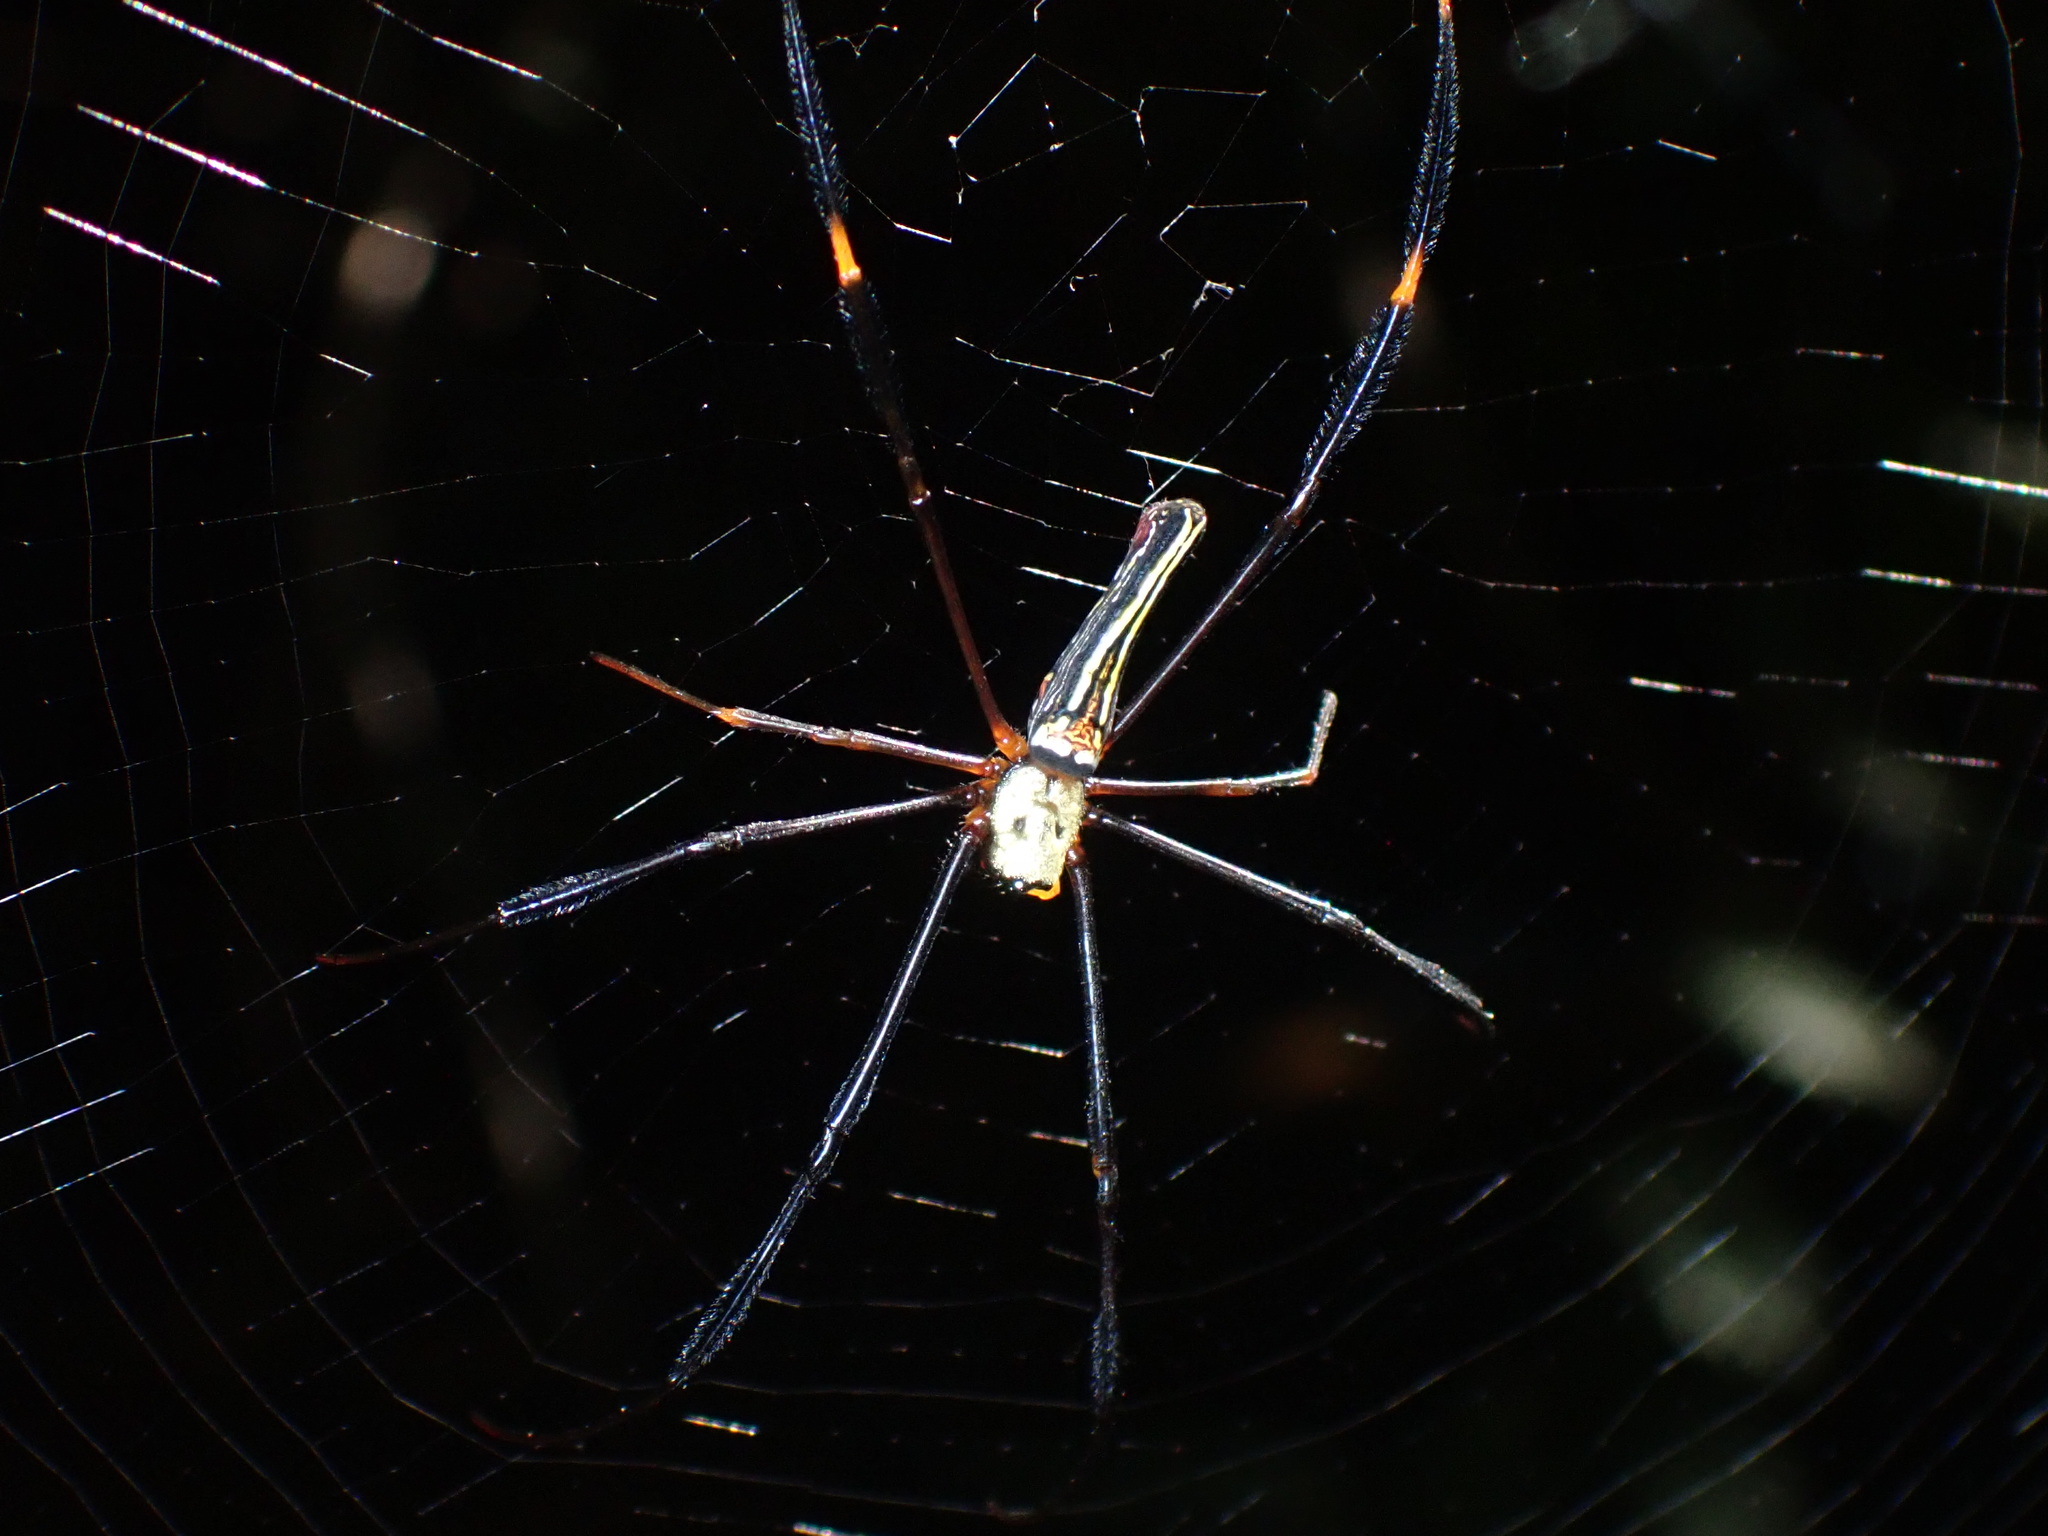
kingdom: Animalia
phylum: Arthropoda
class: Arachnida
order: Araneae
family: Araneidae
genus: Nephila
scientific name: Nephila pilipes
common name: Giant golden orb weaver
